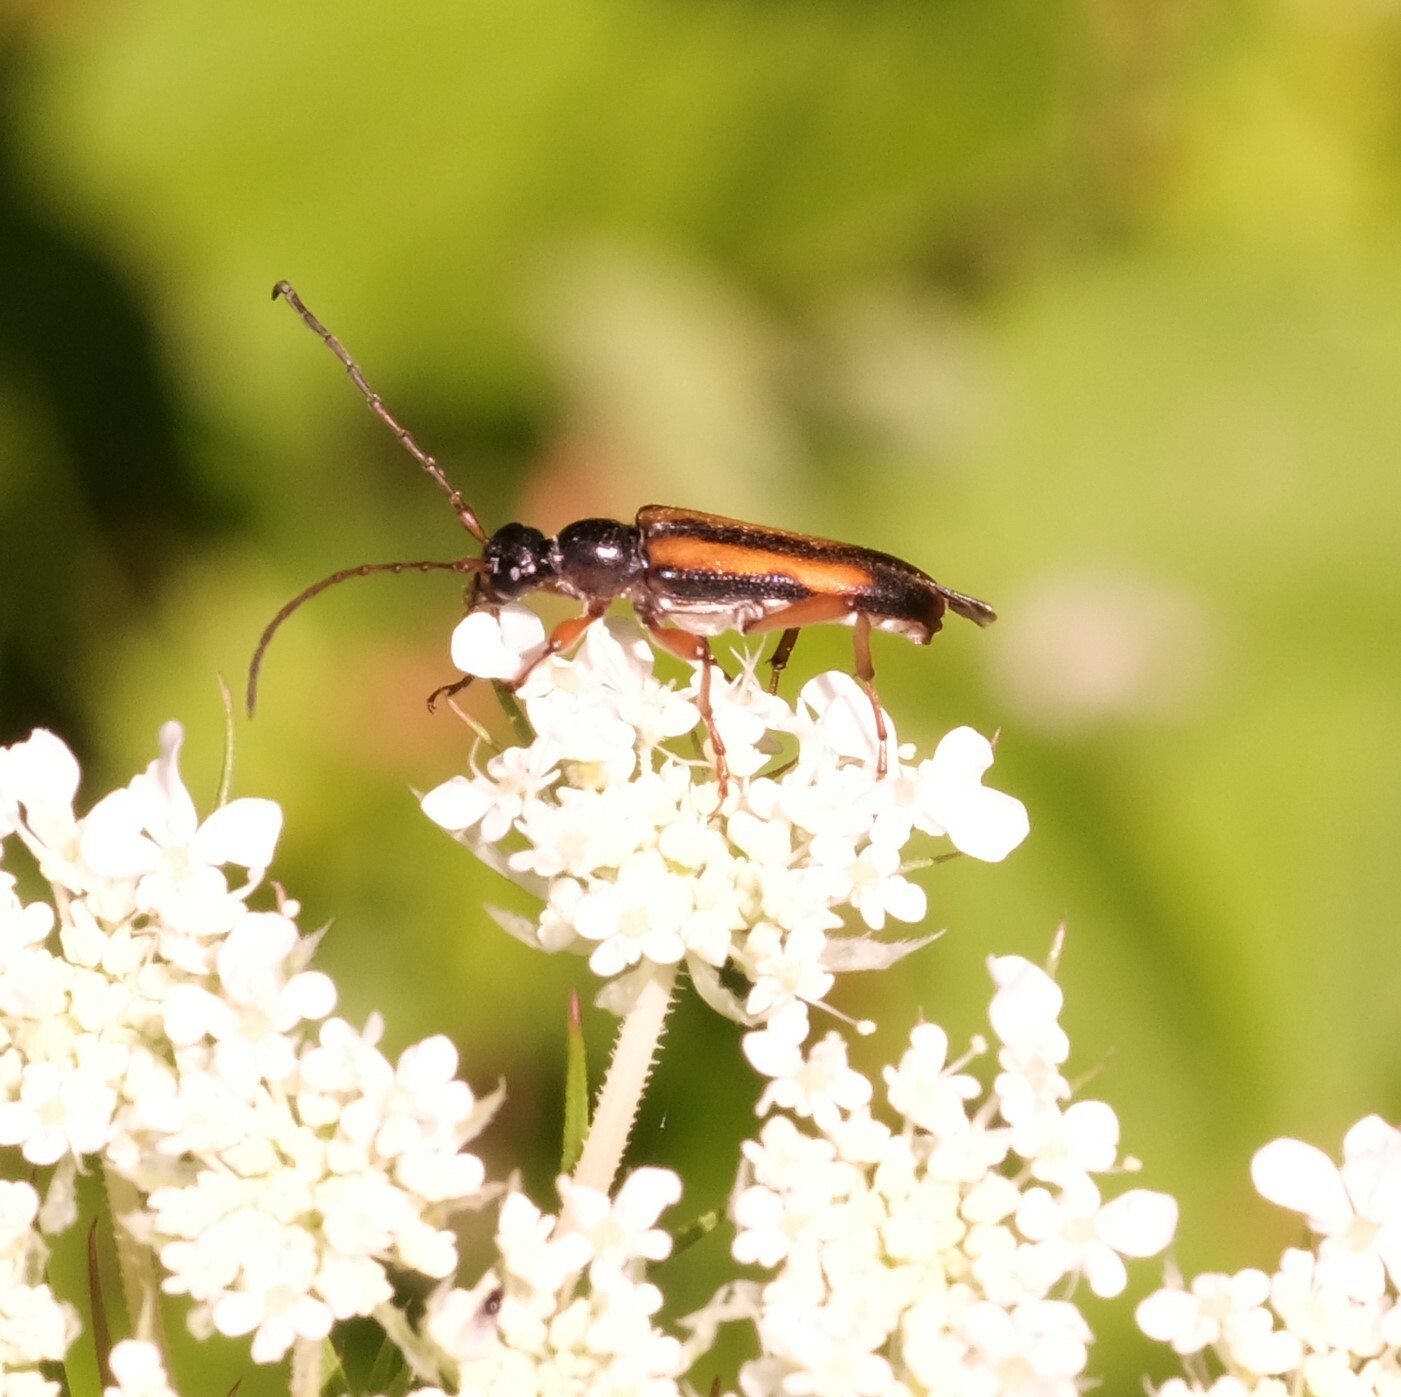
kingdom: Animalia
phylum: Arthropoda
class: Insecta
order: Coleoptera
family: Cerambycidae
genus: Strangalepta
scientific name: Strangalepta abbreviata
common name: Strangalepta flower longhorn beetle
